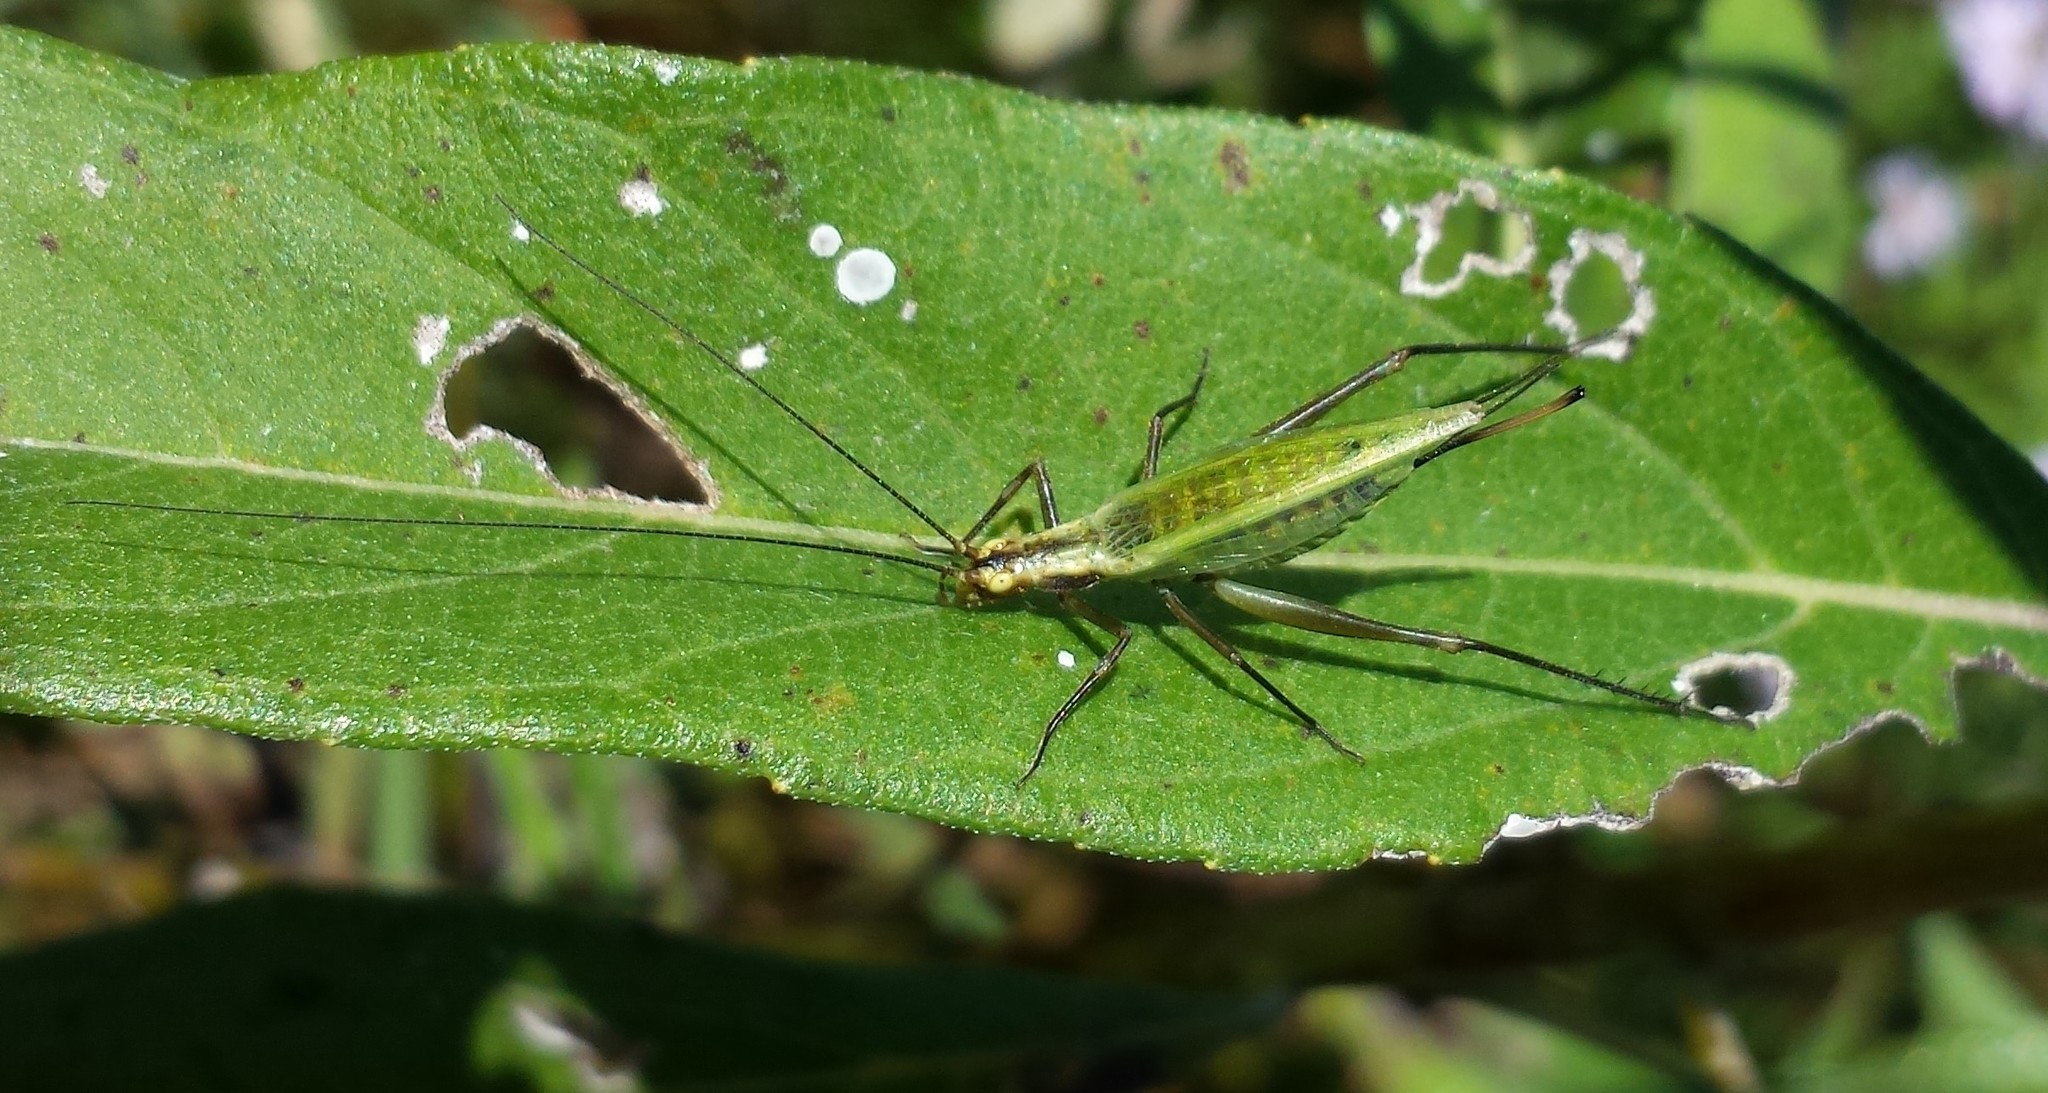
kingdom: Animalia
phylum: Arthropoda
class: Insecta
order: Orthoptera
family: Gryllidae
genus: Oecanthus
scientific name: Oecanthus forbesi
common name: Forbes’s tree cricket
